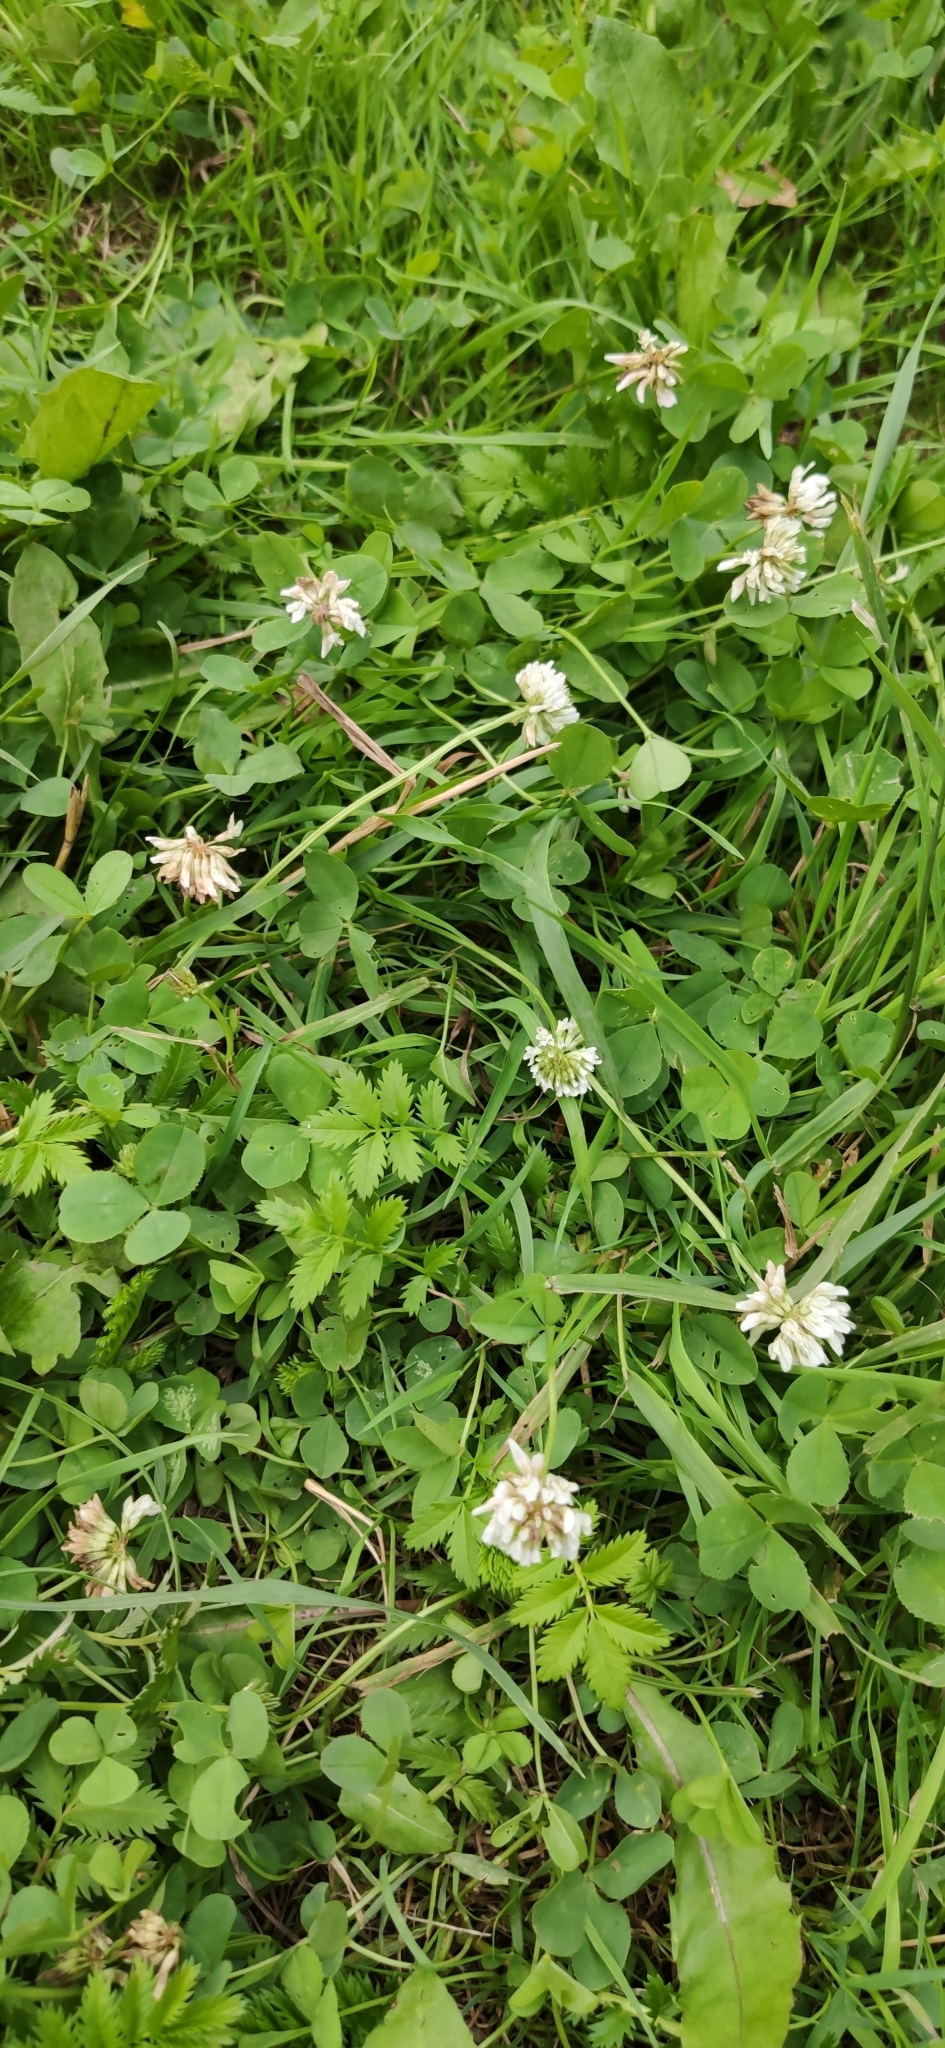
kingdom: Plantae
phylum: Tracheophyta
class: Magnoliopsida
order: Fabales
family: Fabaceae
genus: Trifolium
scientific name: Trifolium repens
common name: White clover
